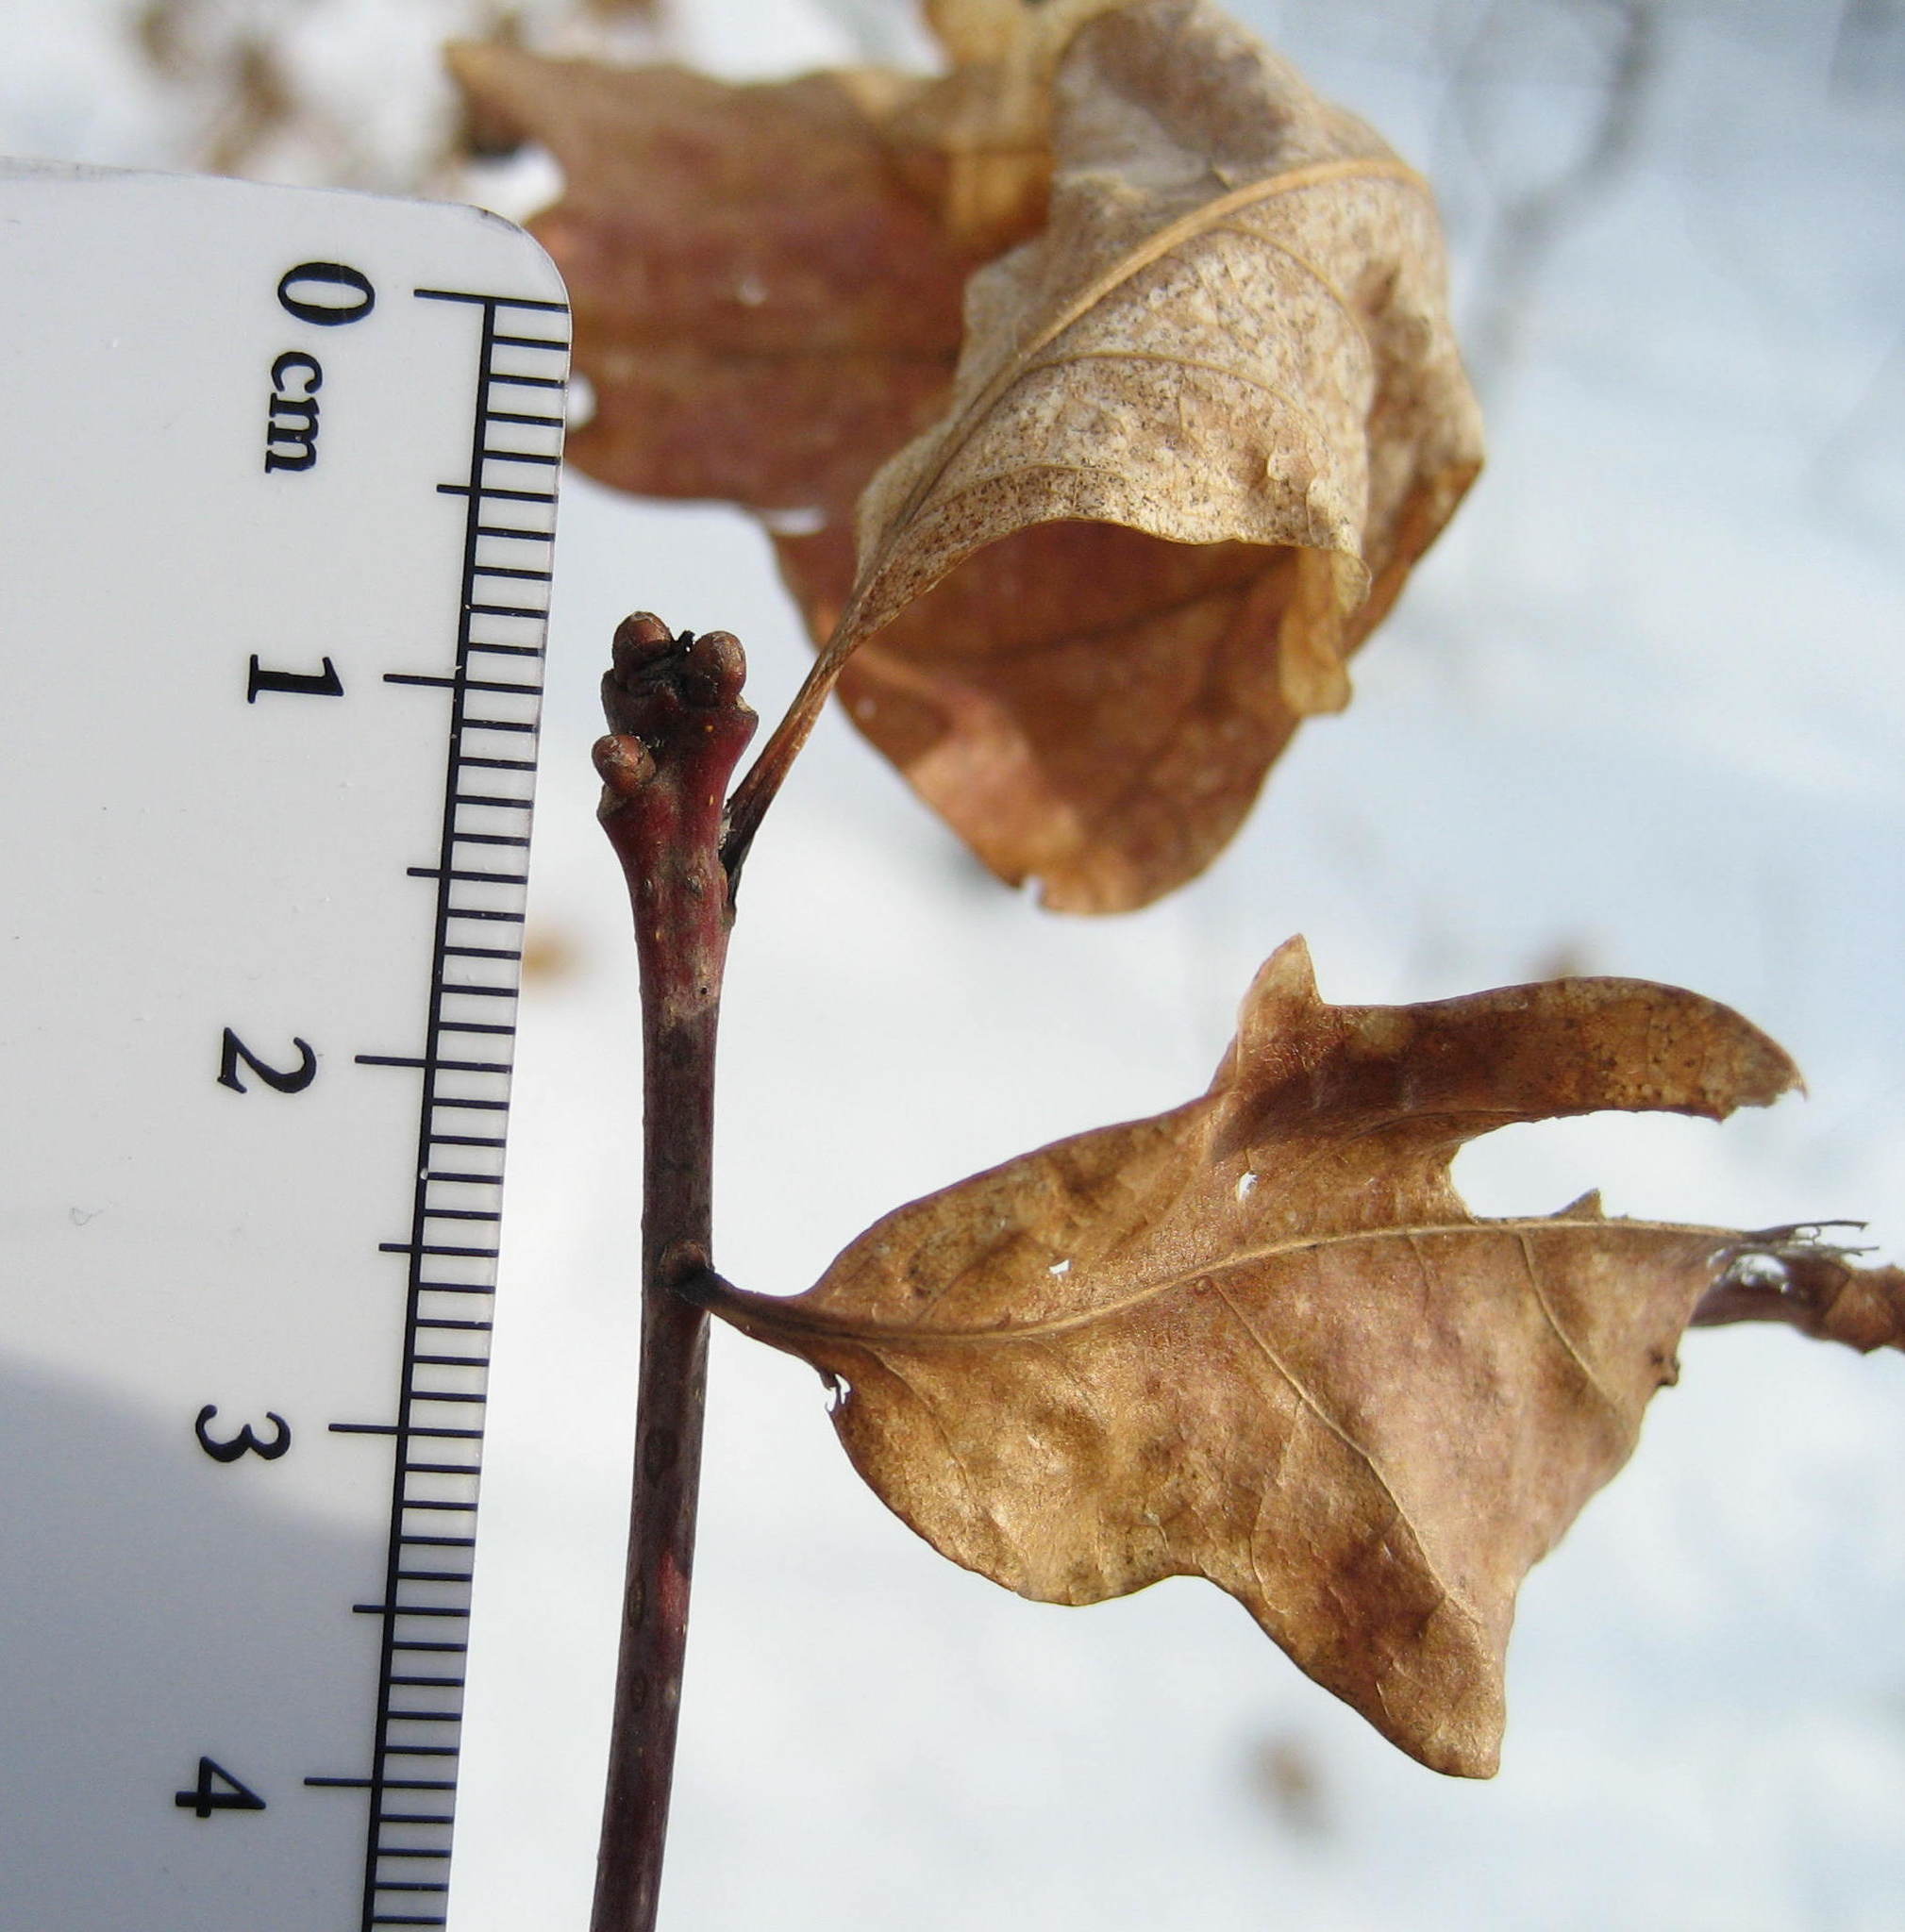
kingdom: Plantae
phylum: Tracheophyta
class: Magnoliopsida
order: Fagales
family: Fagaceae
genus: Quercus
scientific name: Quercus alba
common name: White oak
